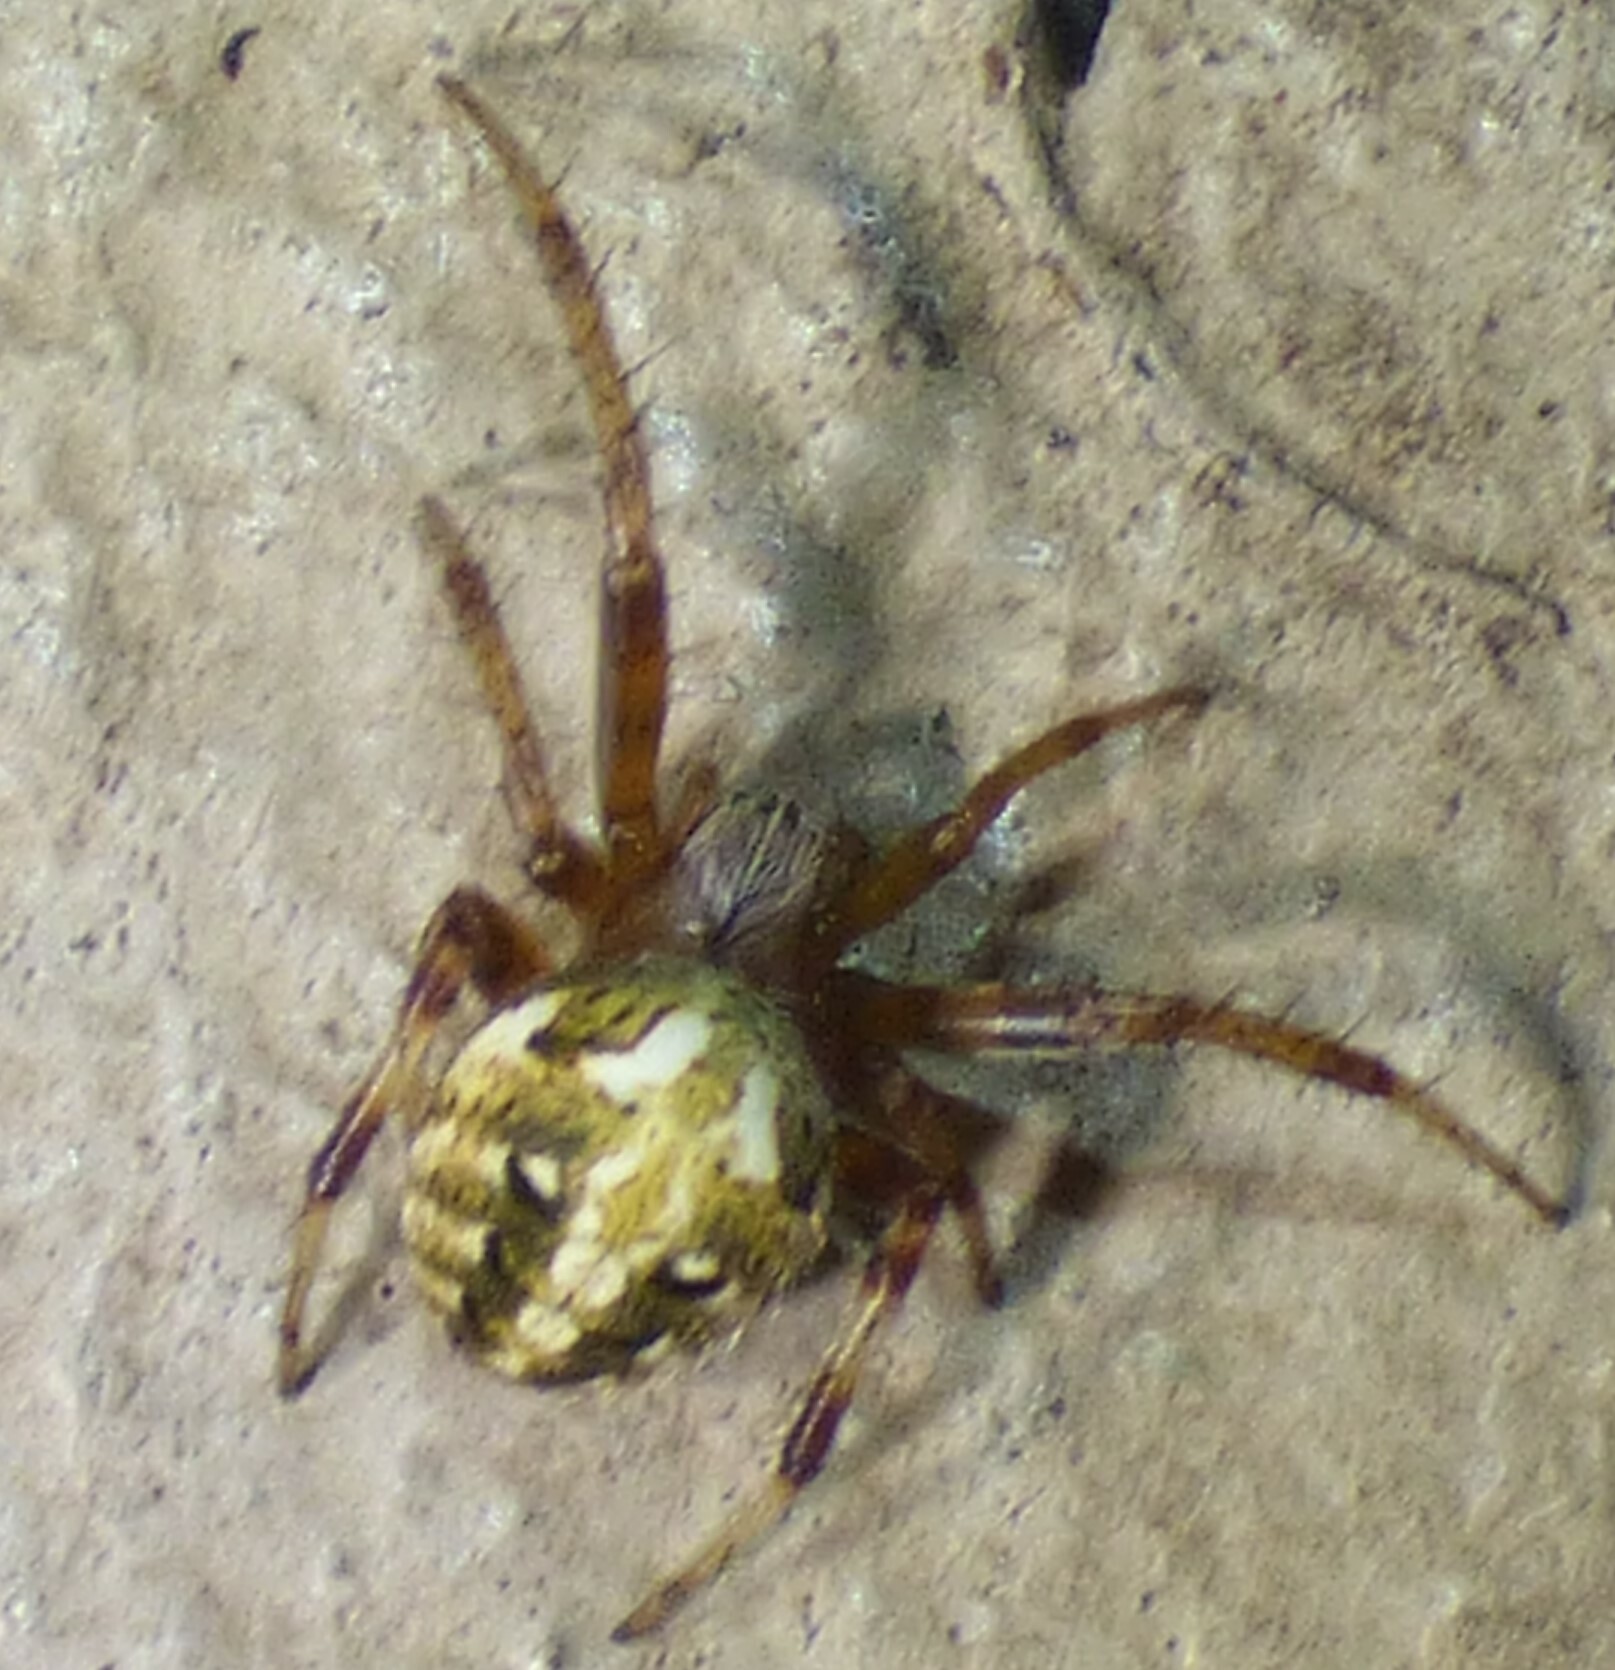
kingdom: Animalia
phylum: Arthropoda
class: Arachnida
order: Araneae
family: Araneidae
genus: Neoscona
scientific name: Neoscona arabesca
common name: Orb weavers
